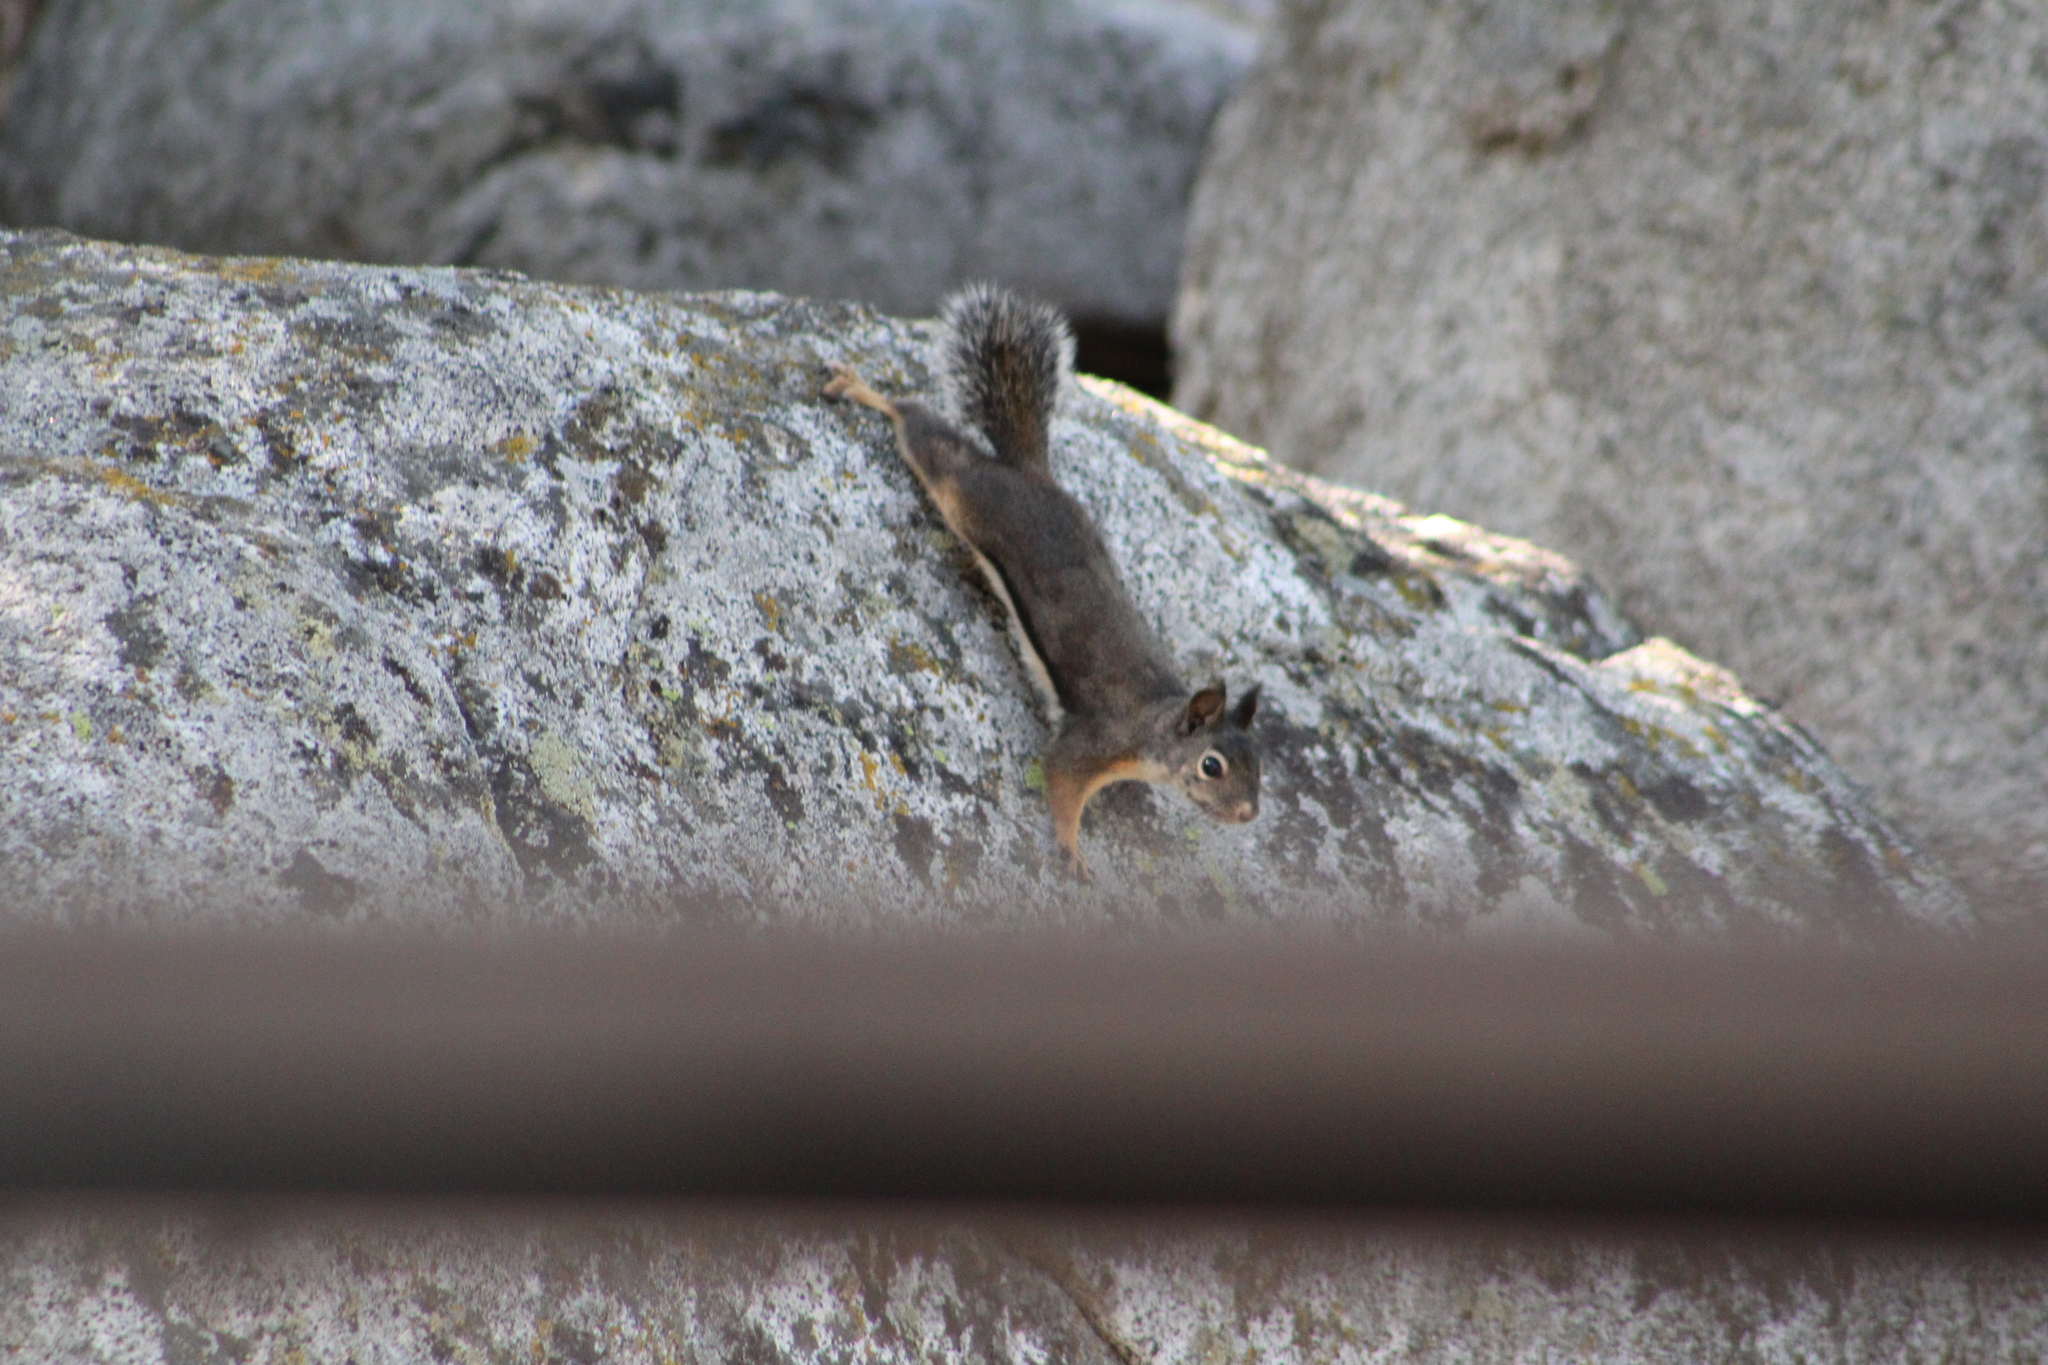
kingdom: Animalia
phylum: Chordata
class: Mammalia
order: Rodentia
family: Sciuridae
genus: Tamiasciurus
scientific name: Tamiasciurus douglasii
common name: Douglas's squirrel
